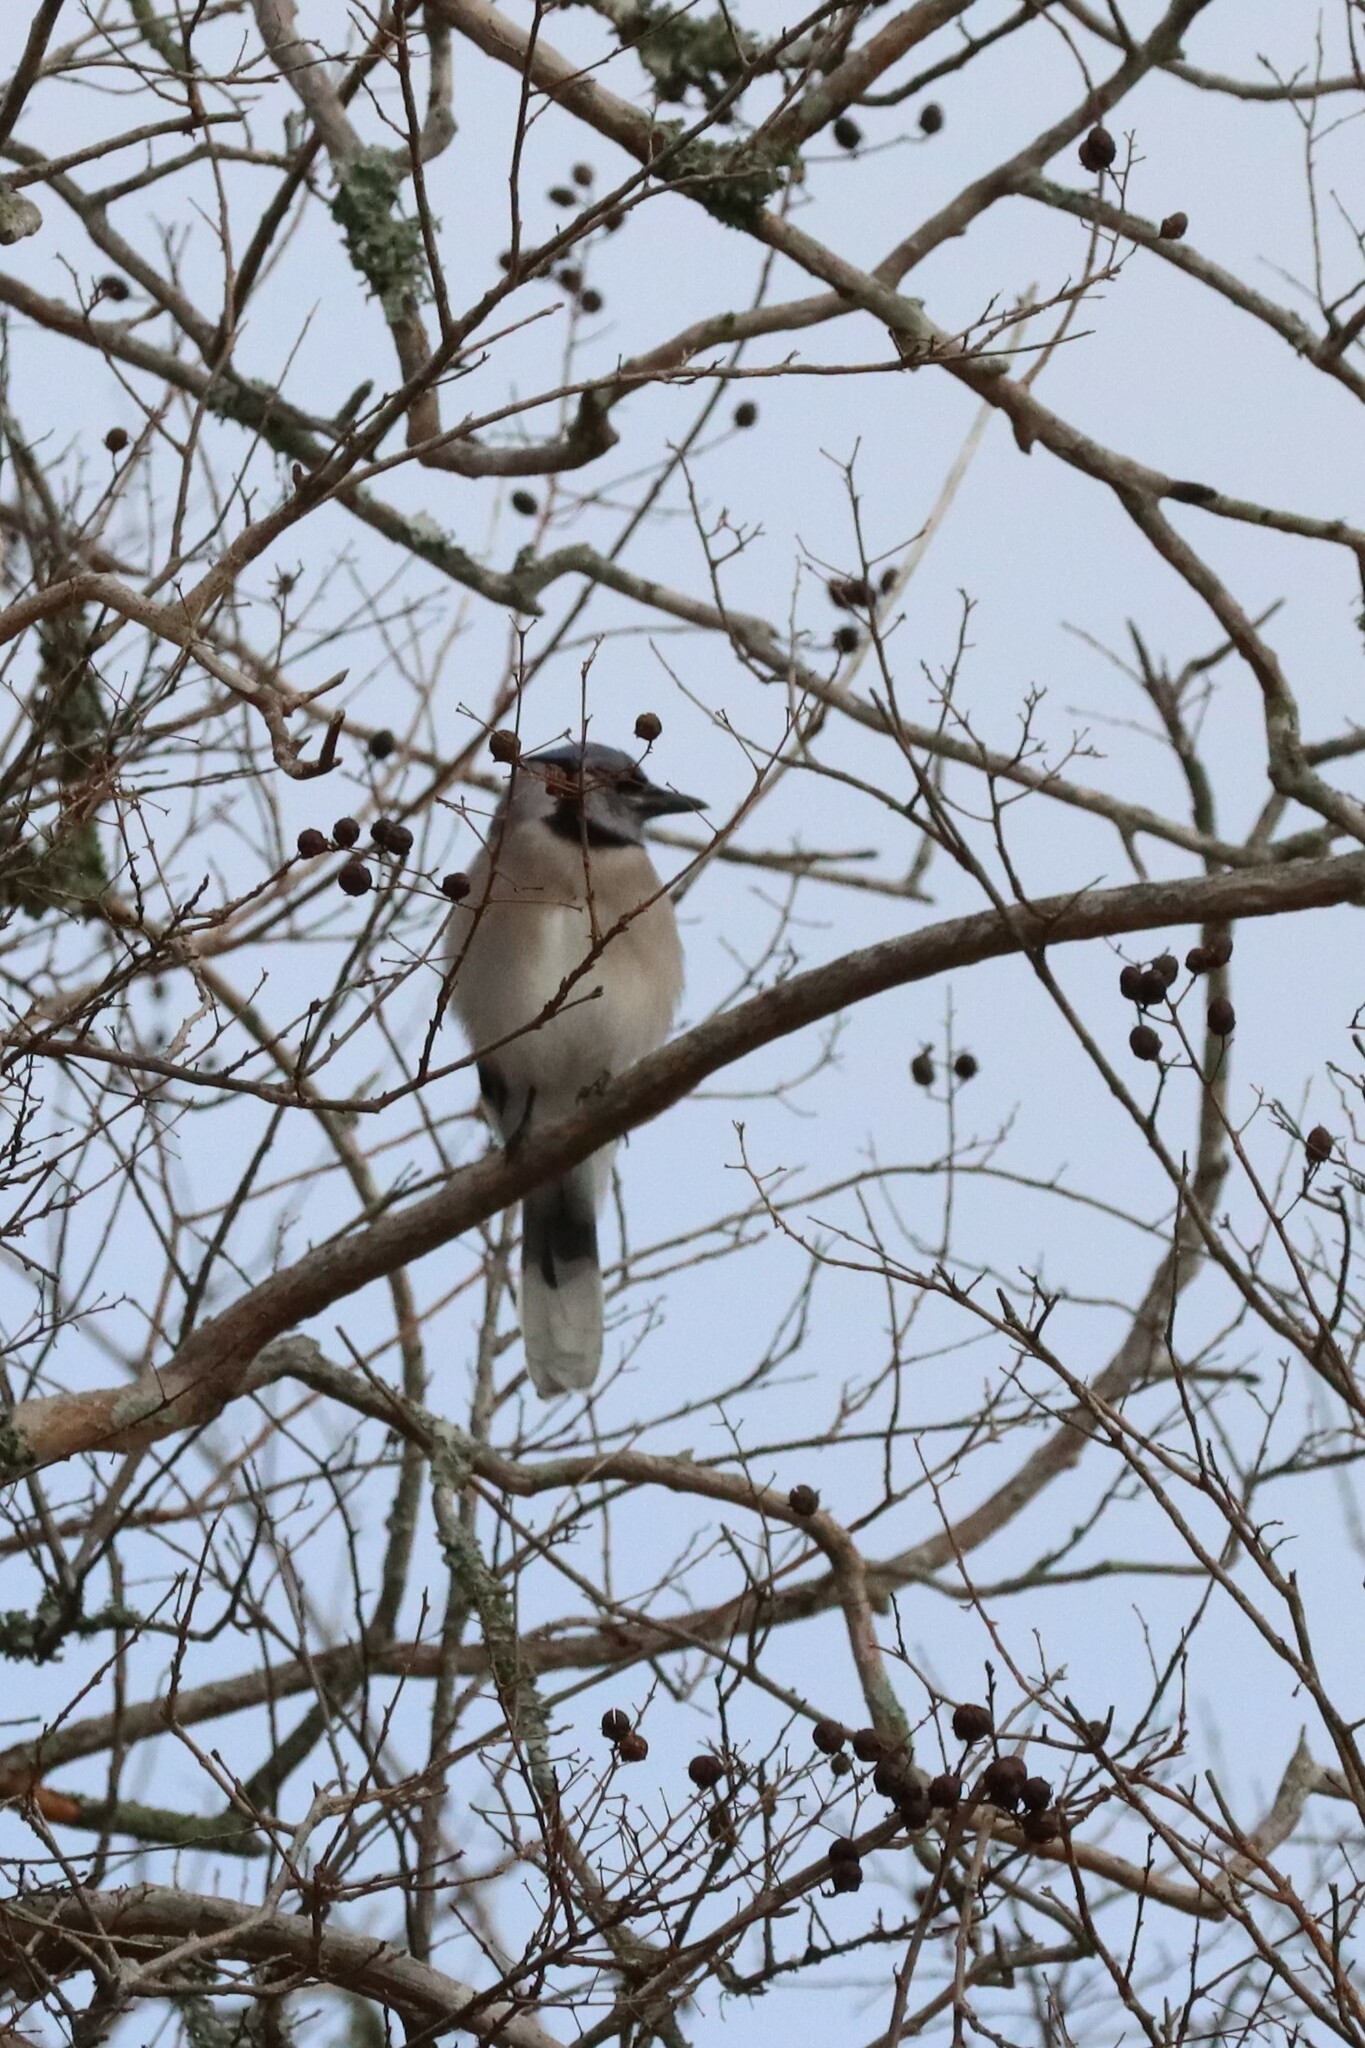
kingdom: Animalia
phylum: Chordata
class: Aves
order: Passeriformes
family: Corvidae
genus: Cyanocitta
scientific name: Cyanocitta cristata
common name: Blue jay
